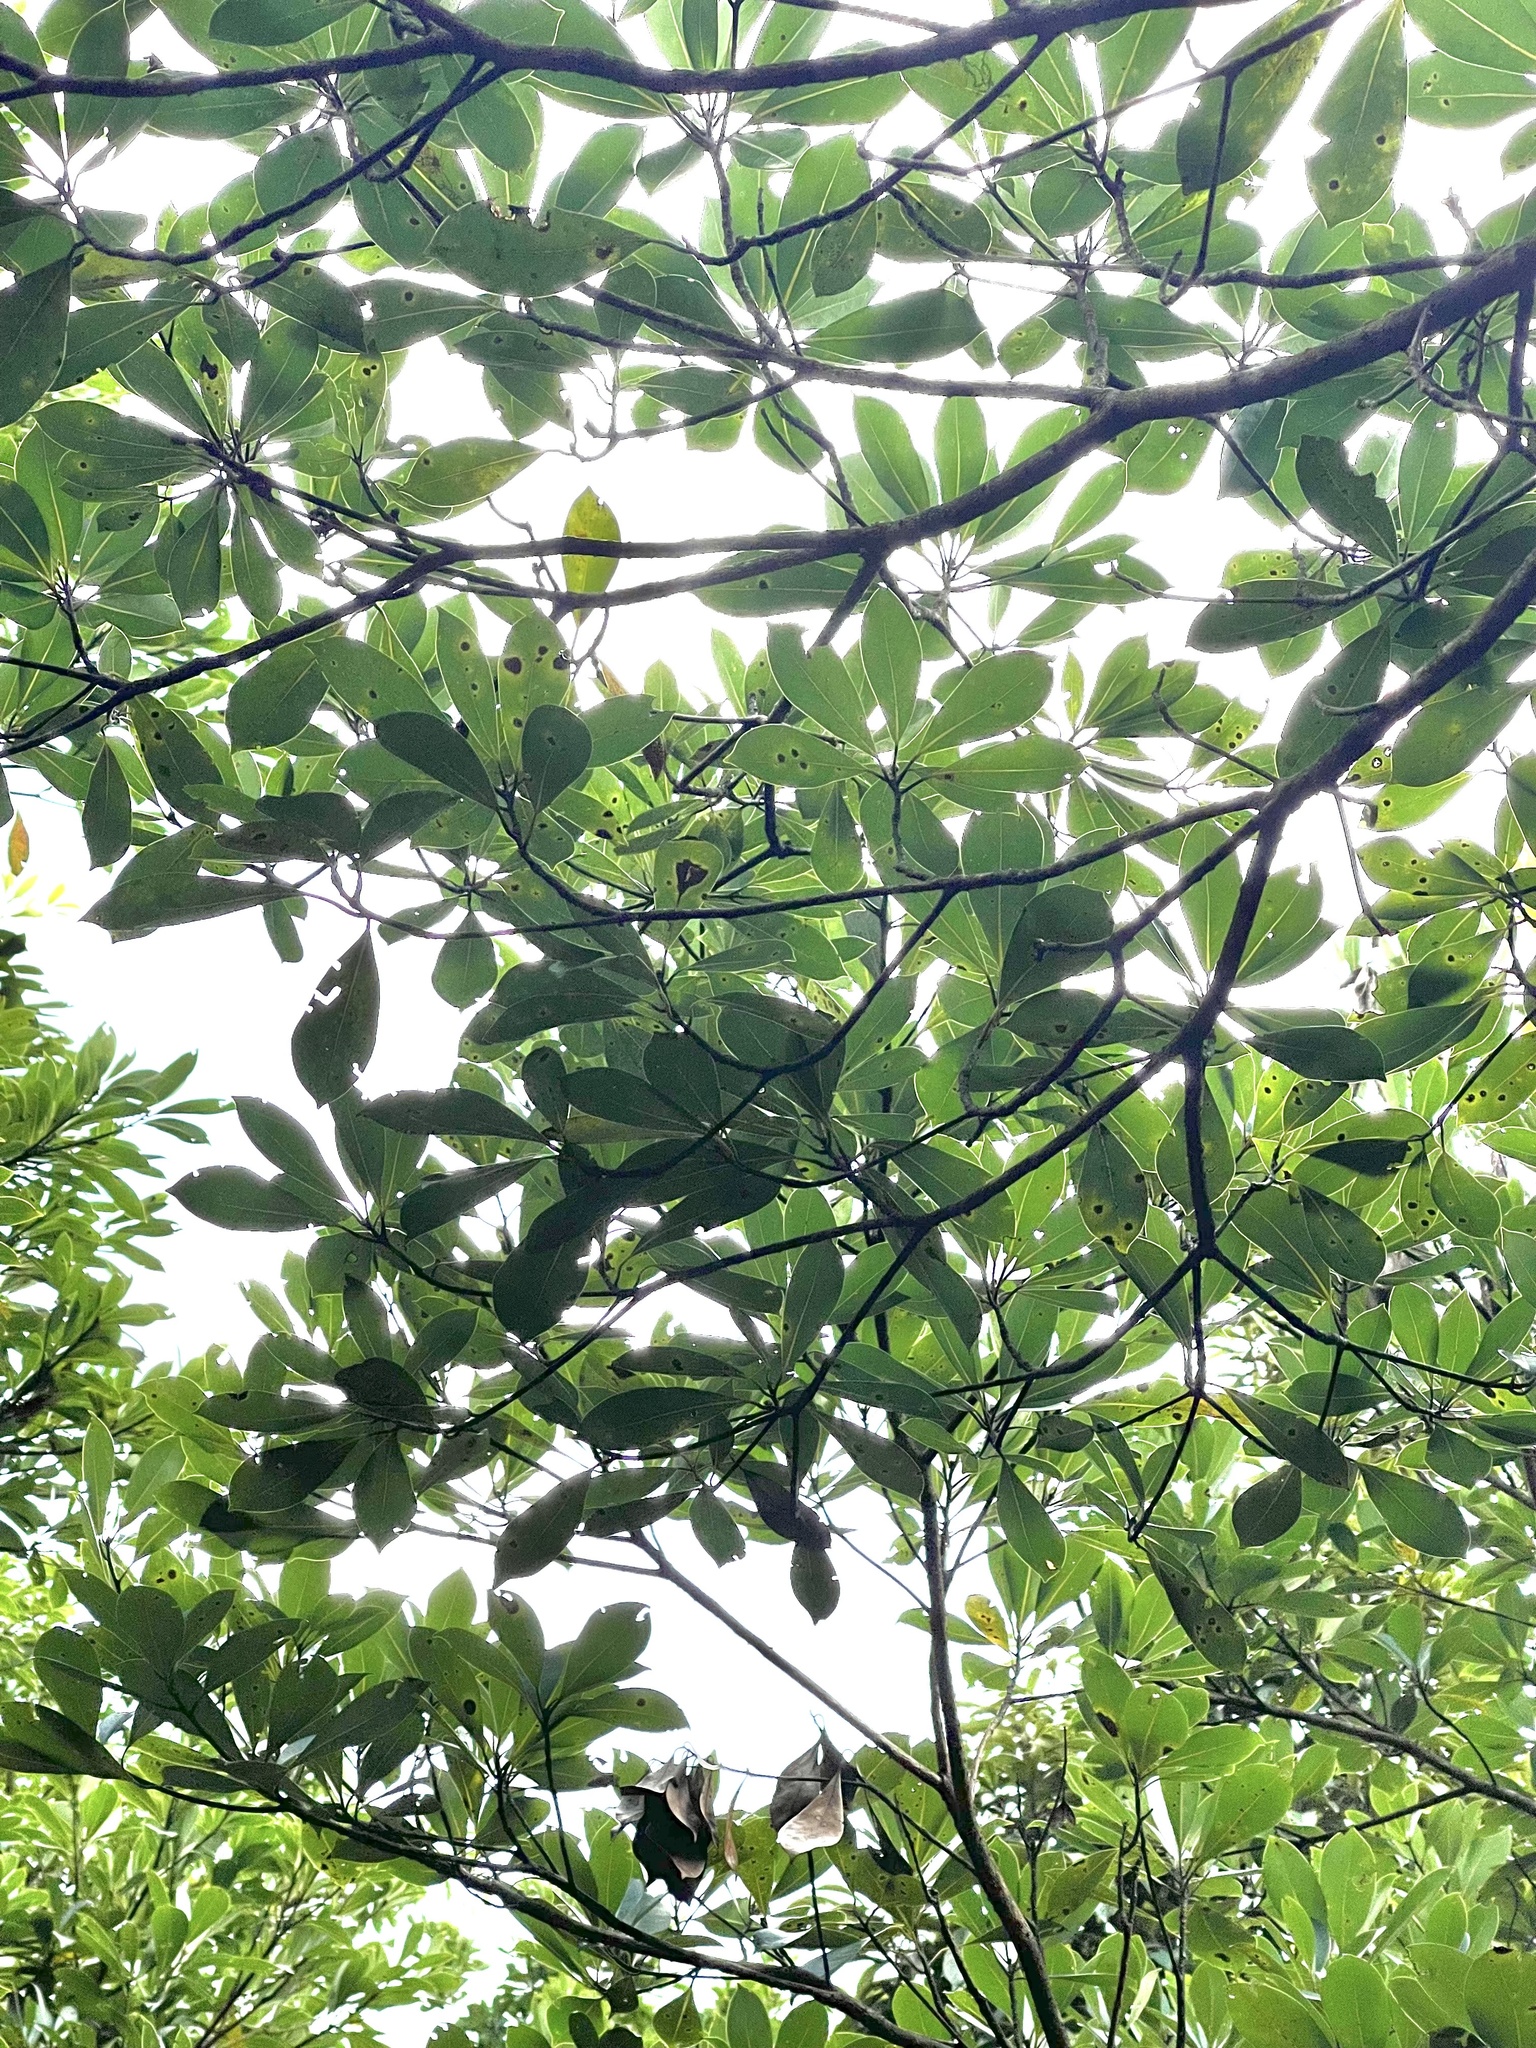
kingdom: Plantae
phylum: Tracheophyta
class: Magnoliopsida
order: Ericales
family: Ebenaceae
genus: Diospyros
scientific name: Diospyros morrisiana
